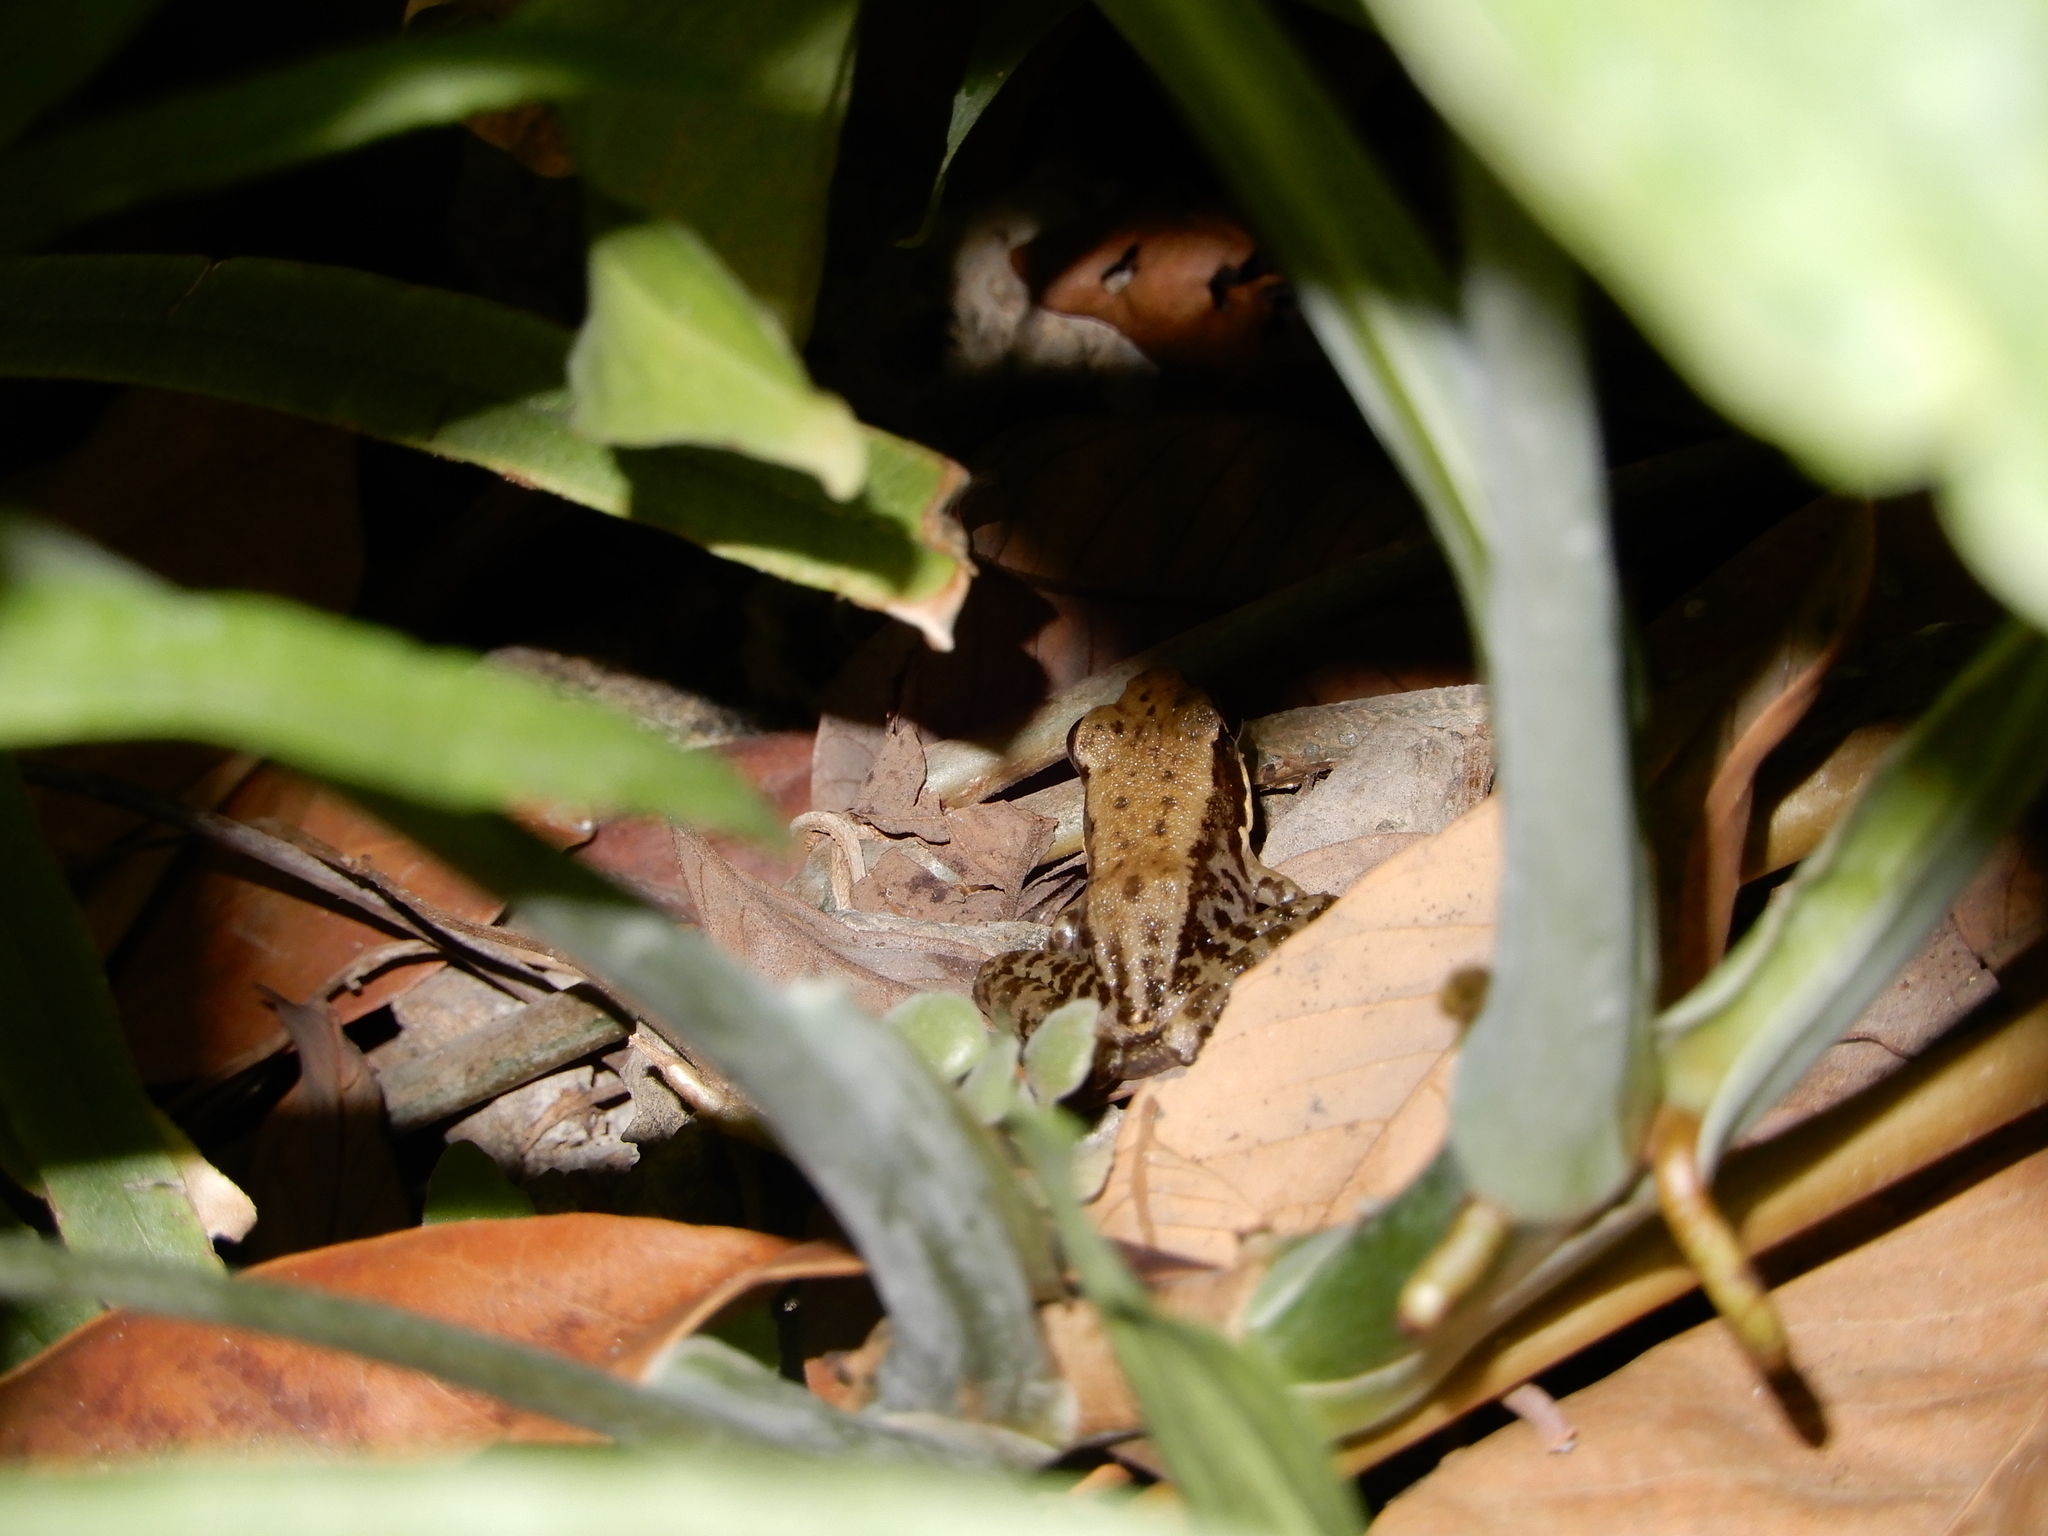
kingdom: Animalia
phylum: Chordata
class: Amphibia
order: Anura
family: Ranidae
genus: Sylvirana
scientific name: Sylvirana nigrovittata
